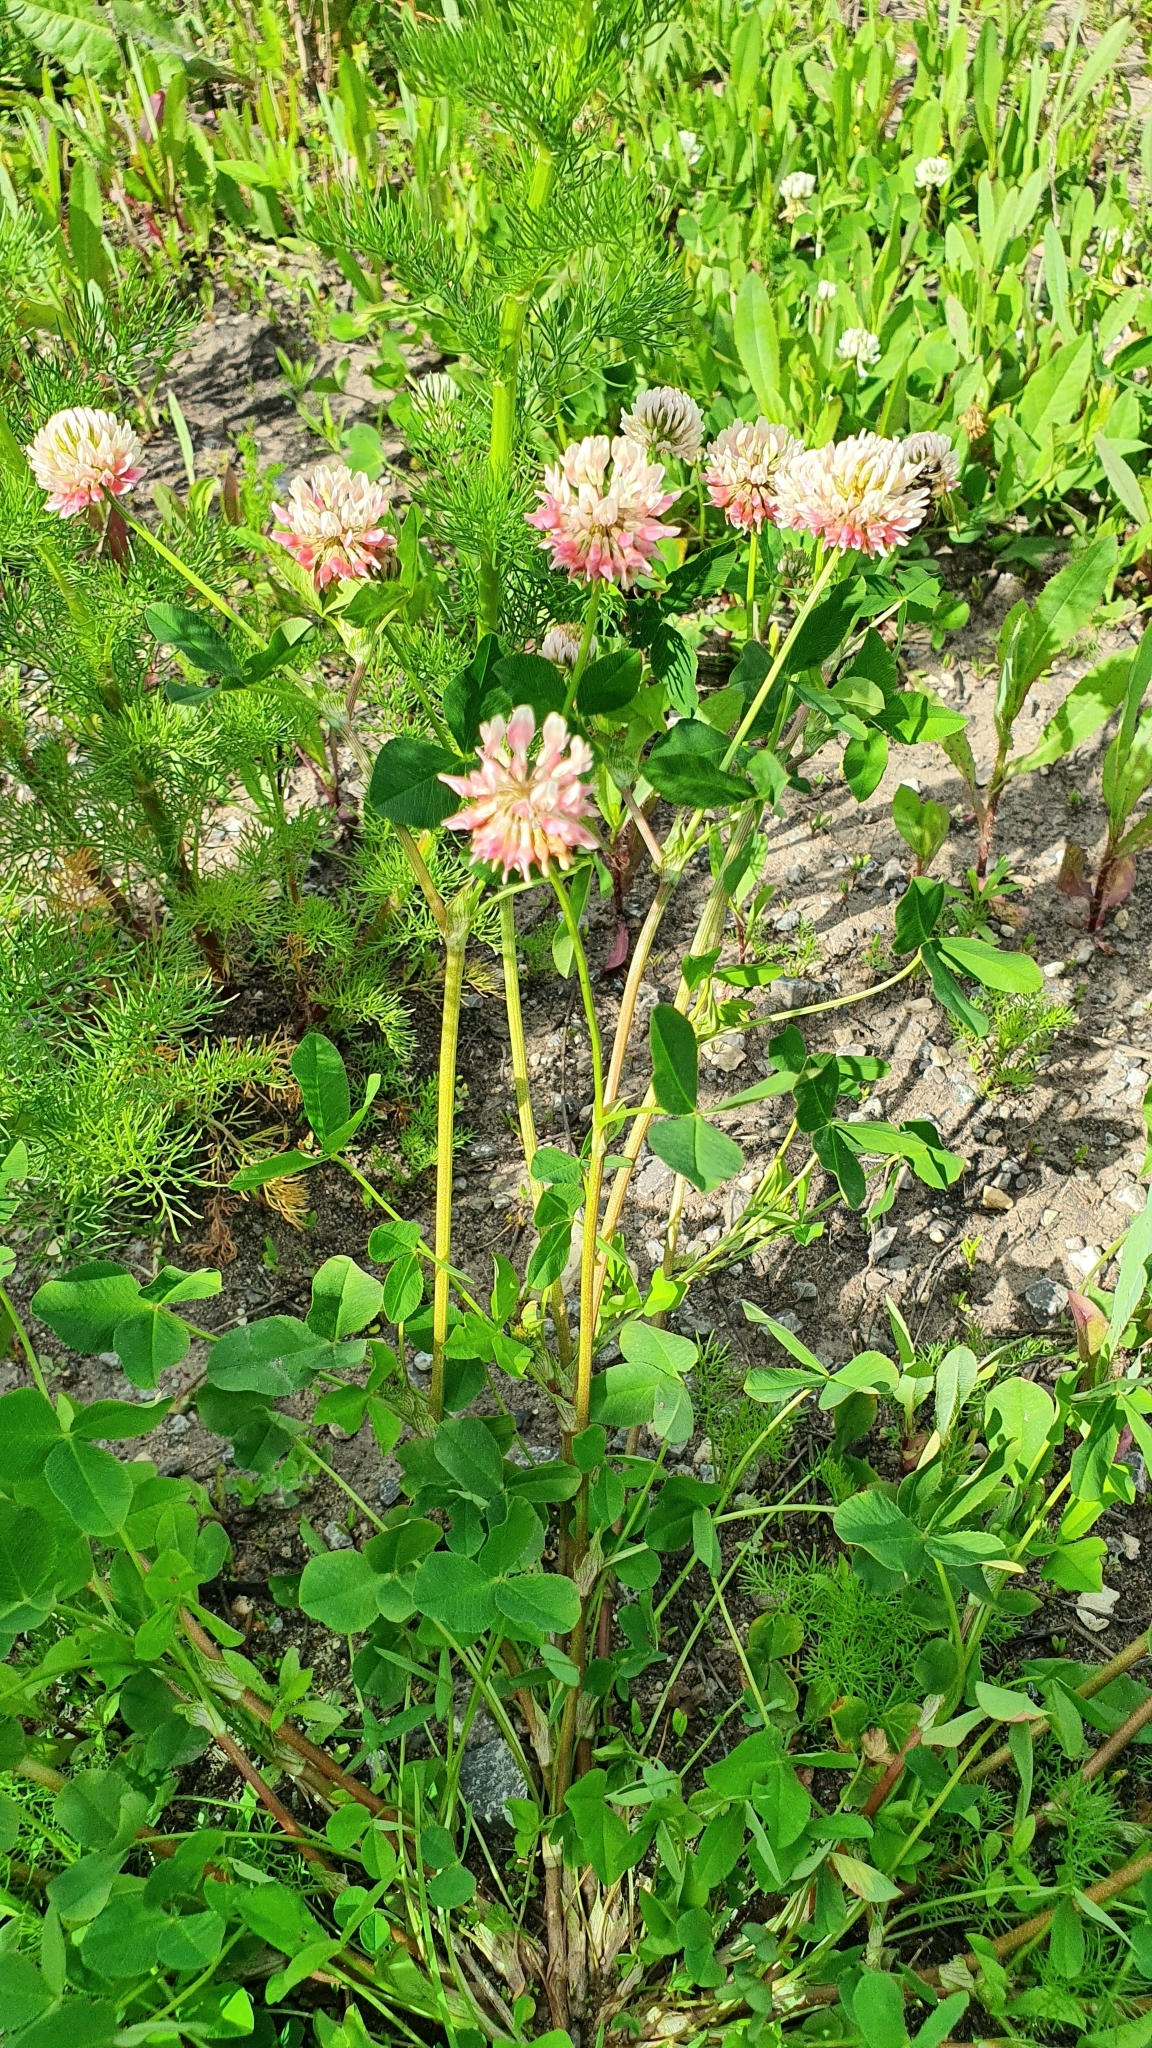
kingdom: Plantae
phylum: Tracheophyta
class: Magnoliopsida
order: Fabales
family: Fabaceae
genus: Trifolium
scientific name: Trifolium hybridum
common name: Alsike clover
